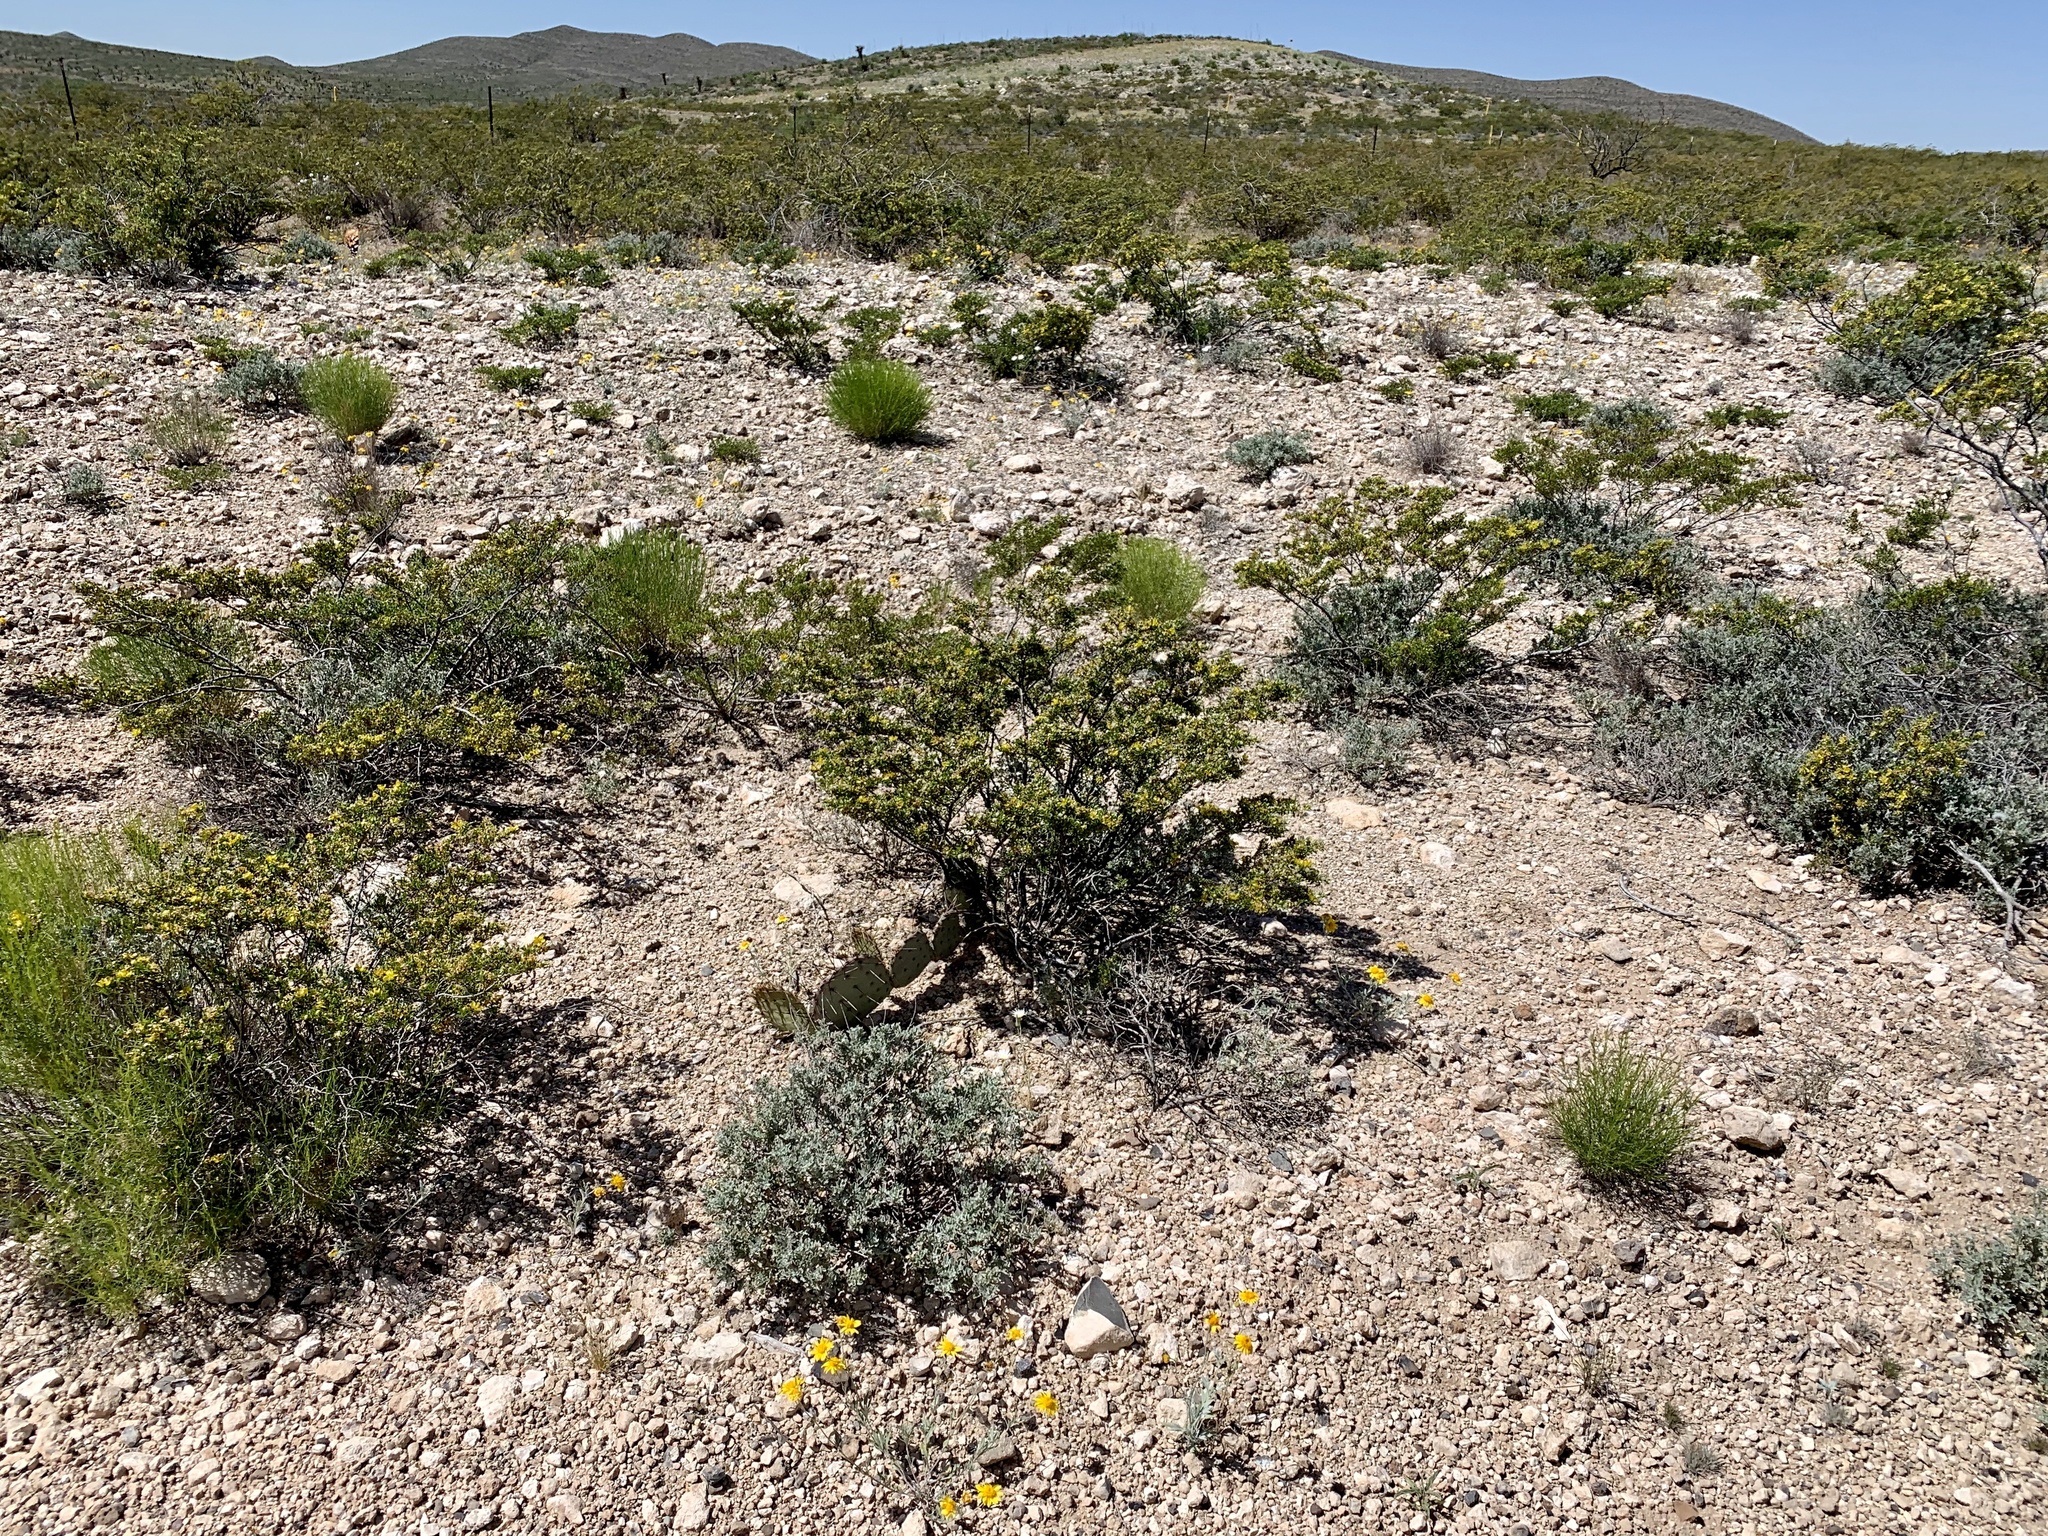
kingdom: Plantae
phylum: Tracheophyta
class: Magnoliopsida
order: Zygophyllales
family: Zygophyllaceae
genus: Larrea
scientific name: Larrea tridentata
